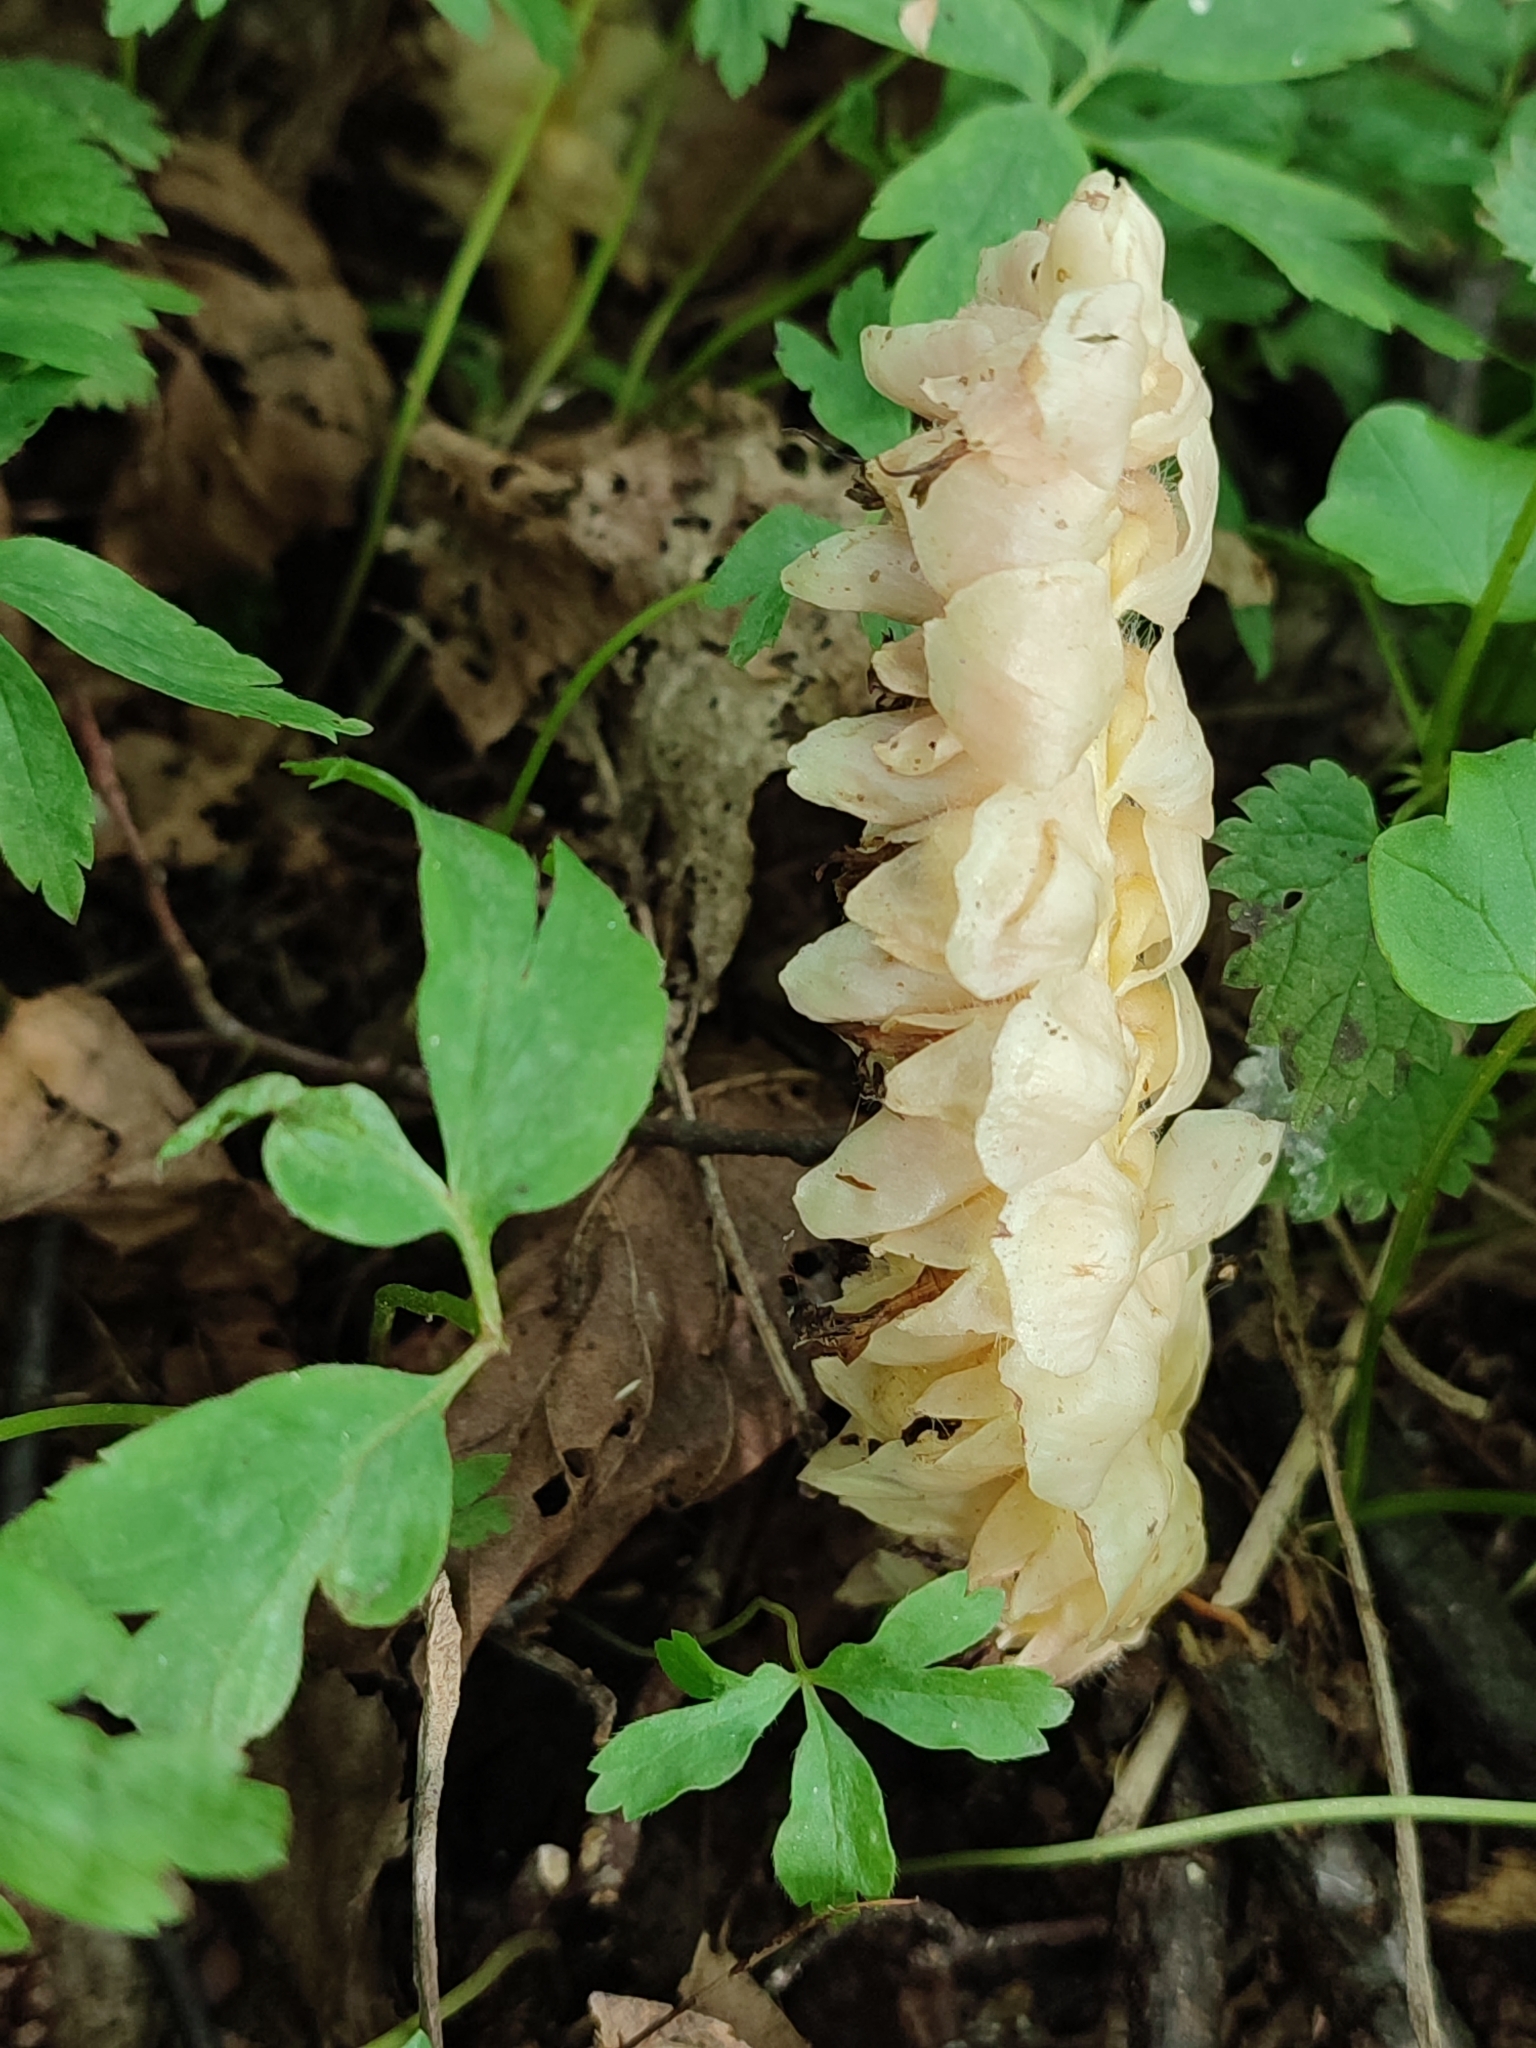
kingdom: Plantae
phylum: Tracheophyta
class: Magnoliopsida
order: Lamiales
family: Orobanchaceae
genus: Lathraea
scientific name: Lathraea squamaria
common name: Toothwort
